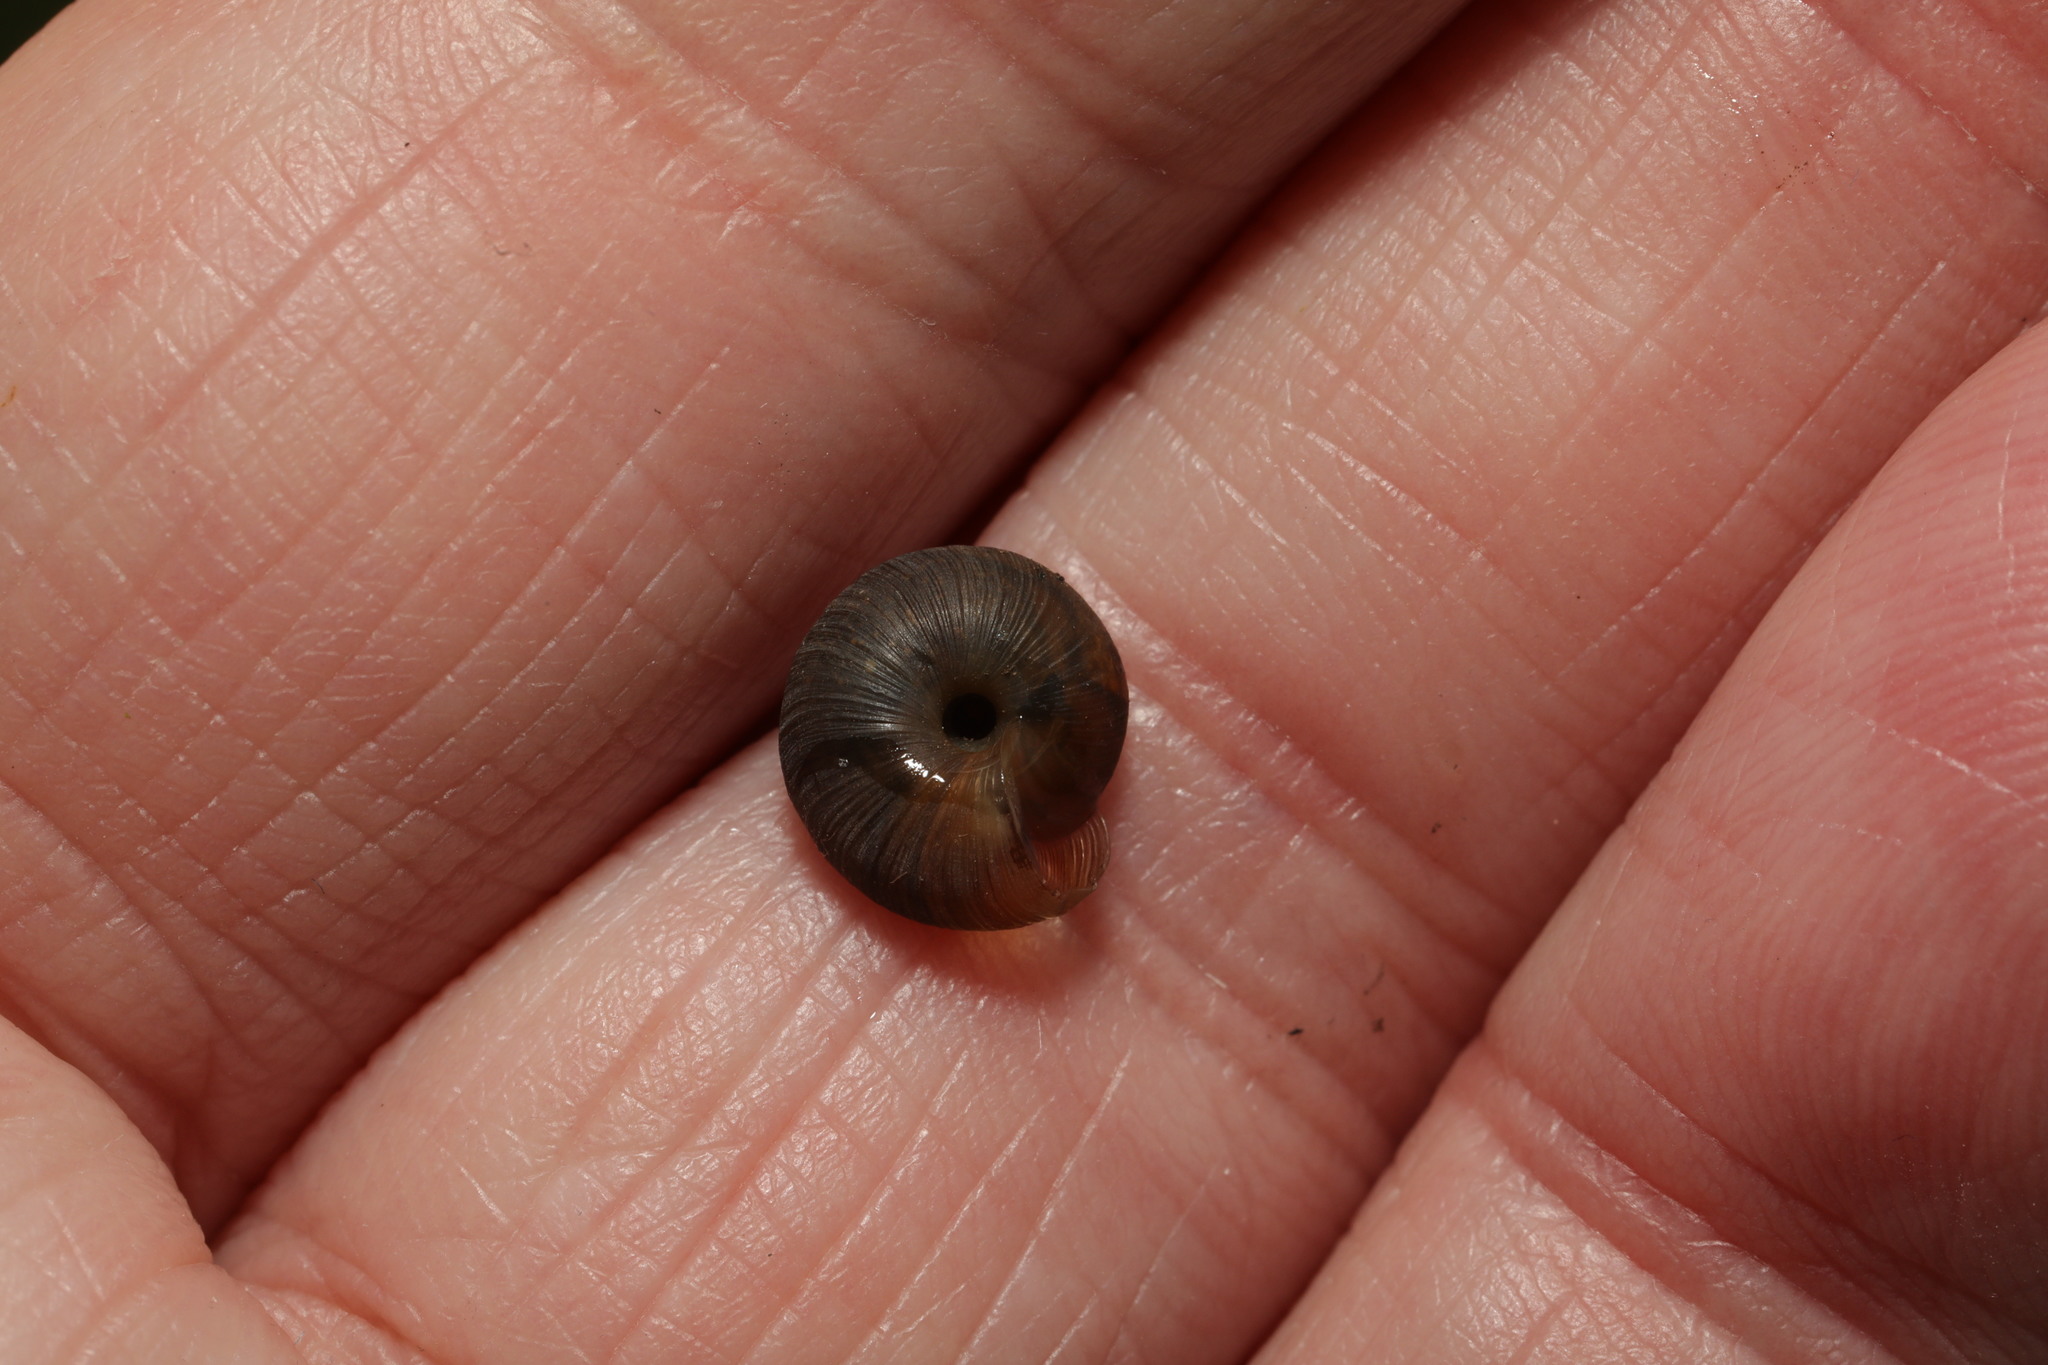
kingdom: Animalia
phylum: Mollusca
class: Gastropoda
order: Stylommatophora
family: Hygromiidae
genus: Trochulus
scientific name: Trochulus striolatus
